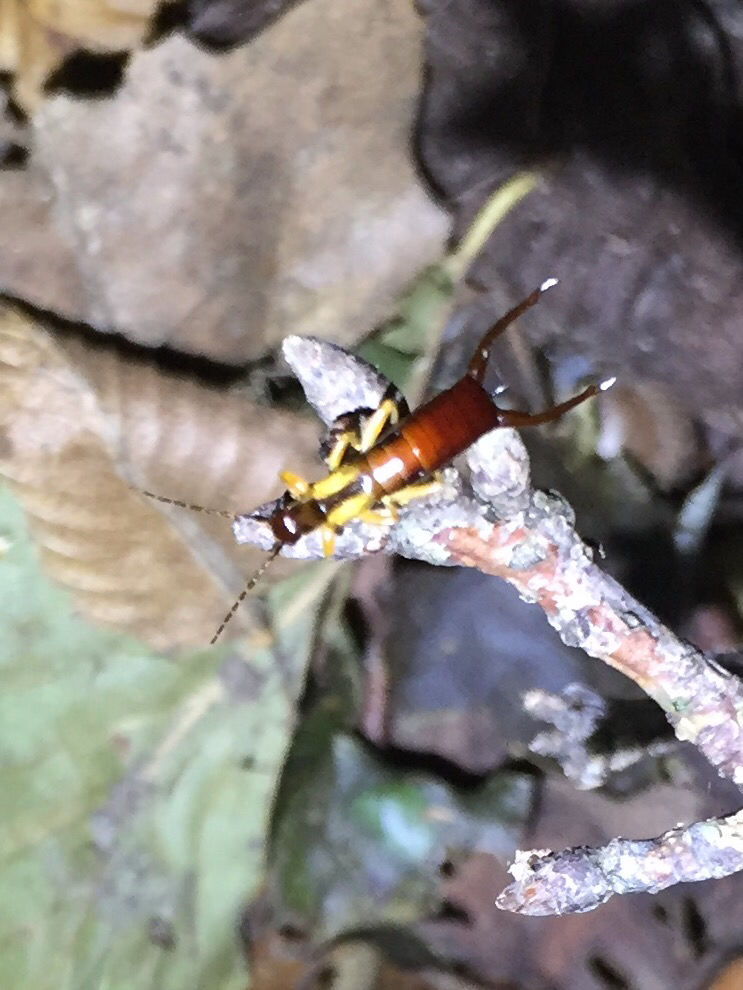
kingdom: Animalia
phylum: Arthropoda
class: Insecta
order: Dermaptera
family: Forficulidae
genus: Doru
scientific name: Doru aculeatum
